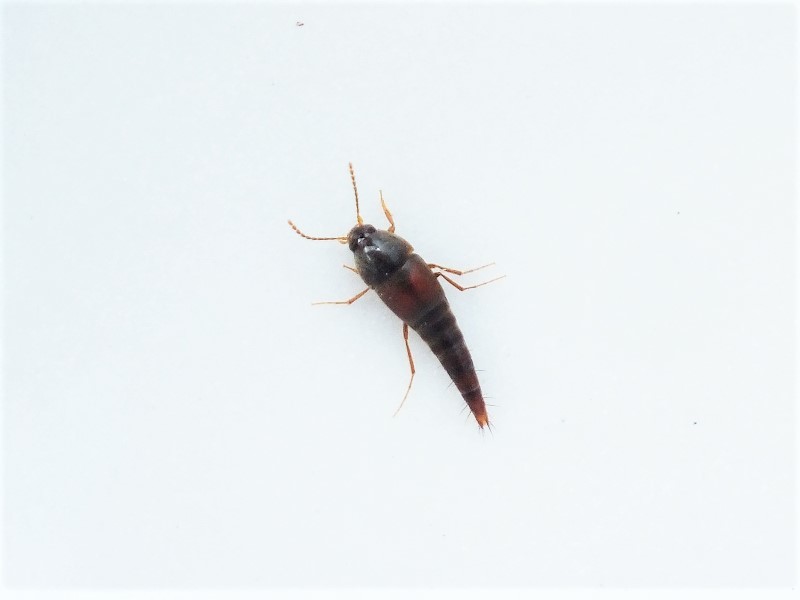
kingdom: Animalia
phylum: Arthropoda
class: Insecta
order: Coleoptera
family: Staphylinidae
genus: Sepedophilus
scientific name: Sepedophilus marshami
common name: Staph beetle
